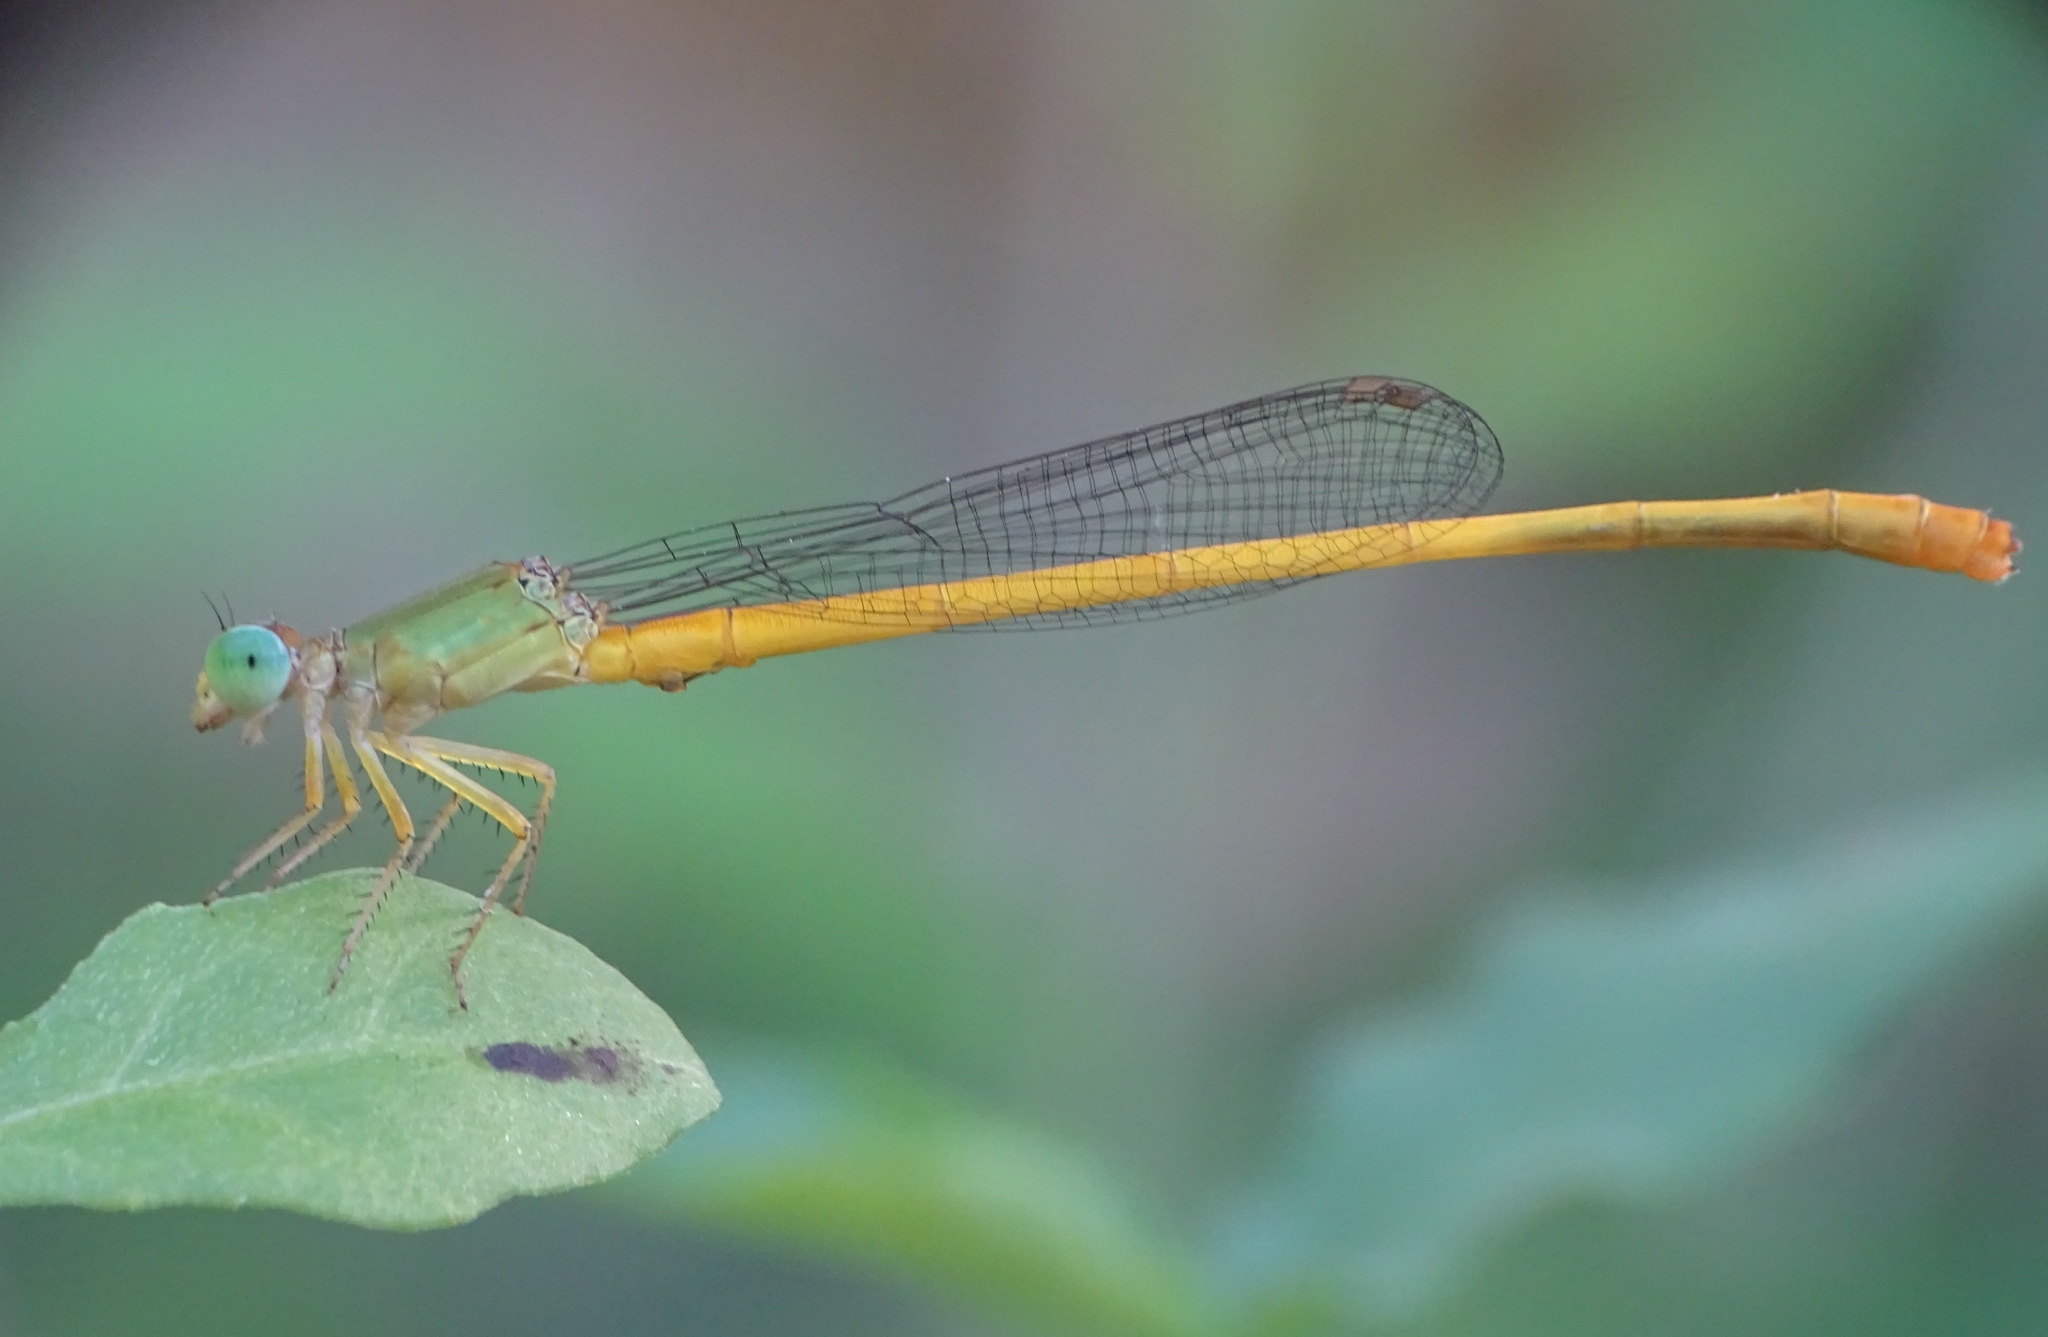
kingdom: Animalia
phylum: Arthropoda
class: Insecta
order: Odonata
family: Coenagrionidae
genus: Ceriagrion
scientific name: Ceriagrion coromandelianum
